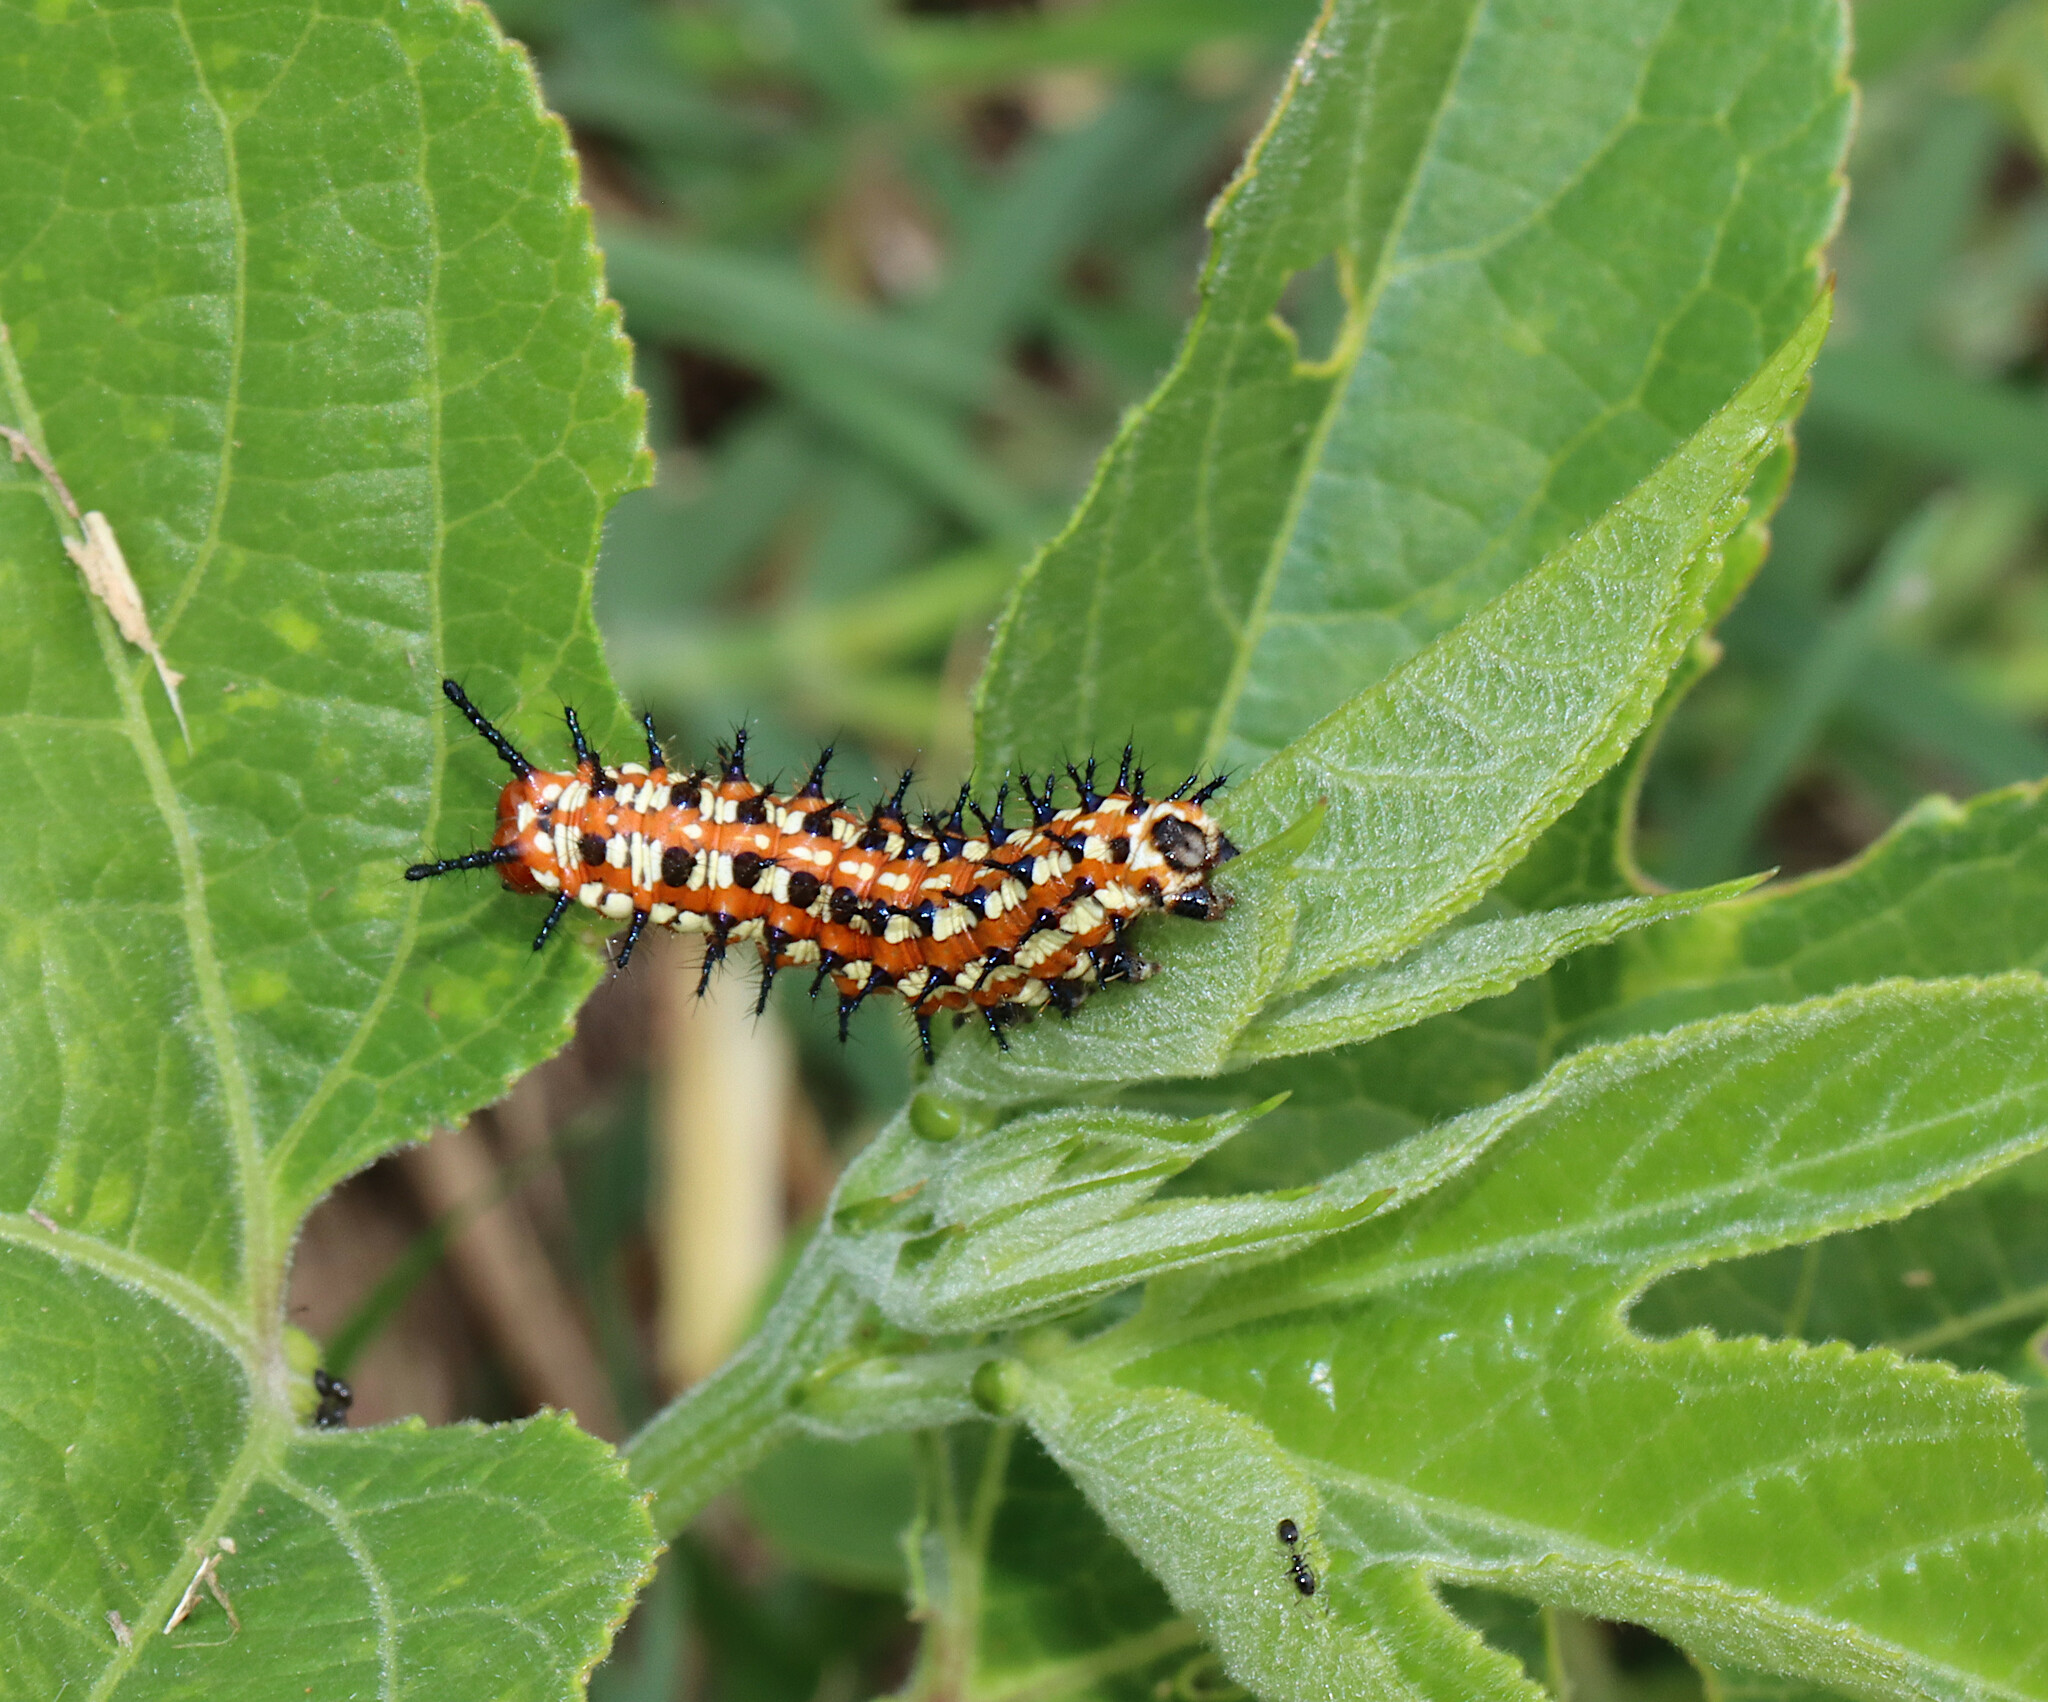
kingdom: Animalia
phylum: Arthropoda
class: Insecta
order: Lepidoptera
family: Nymphalidae
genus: Euptoieta
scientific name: Euptoieta claudia
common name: Variegated fritillary
